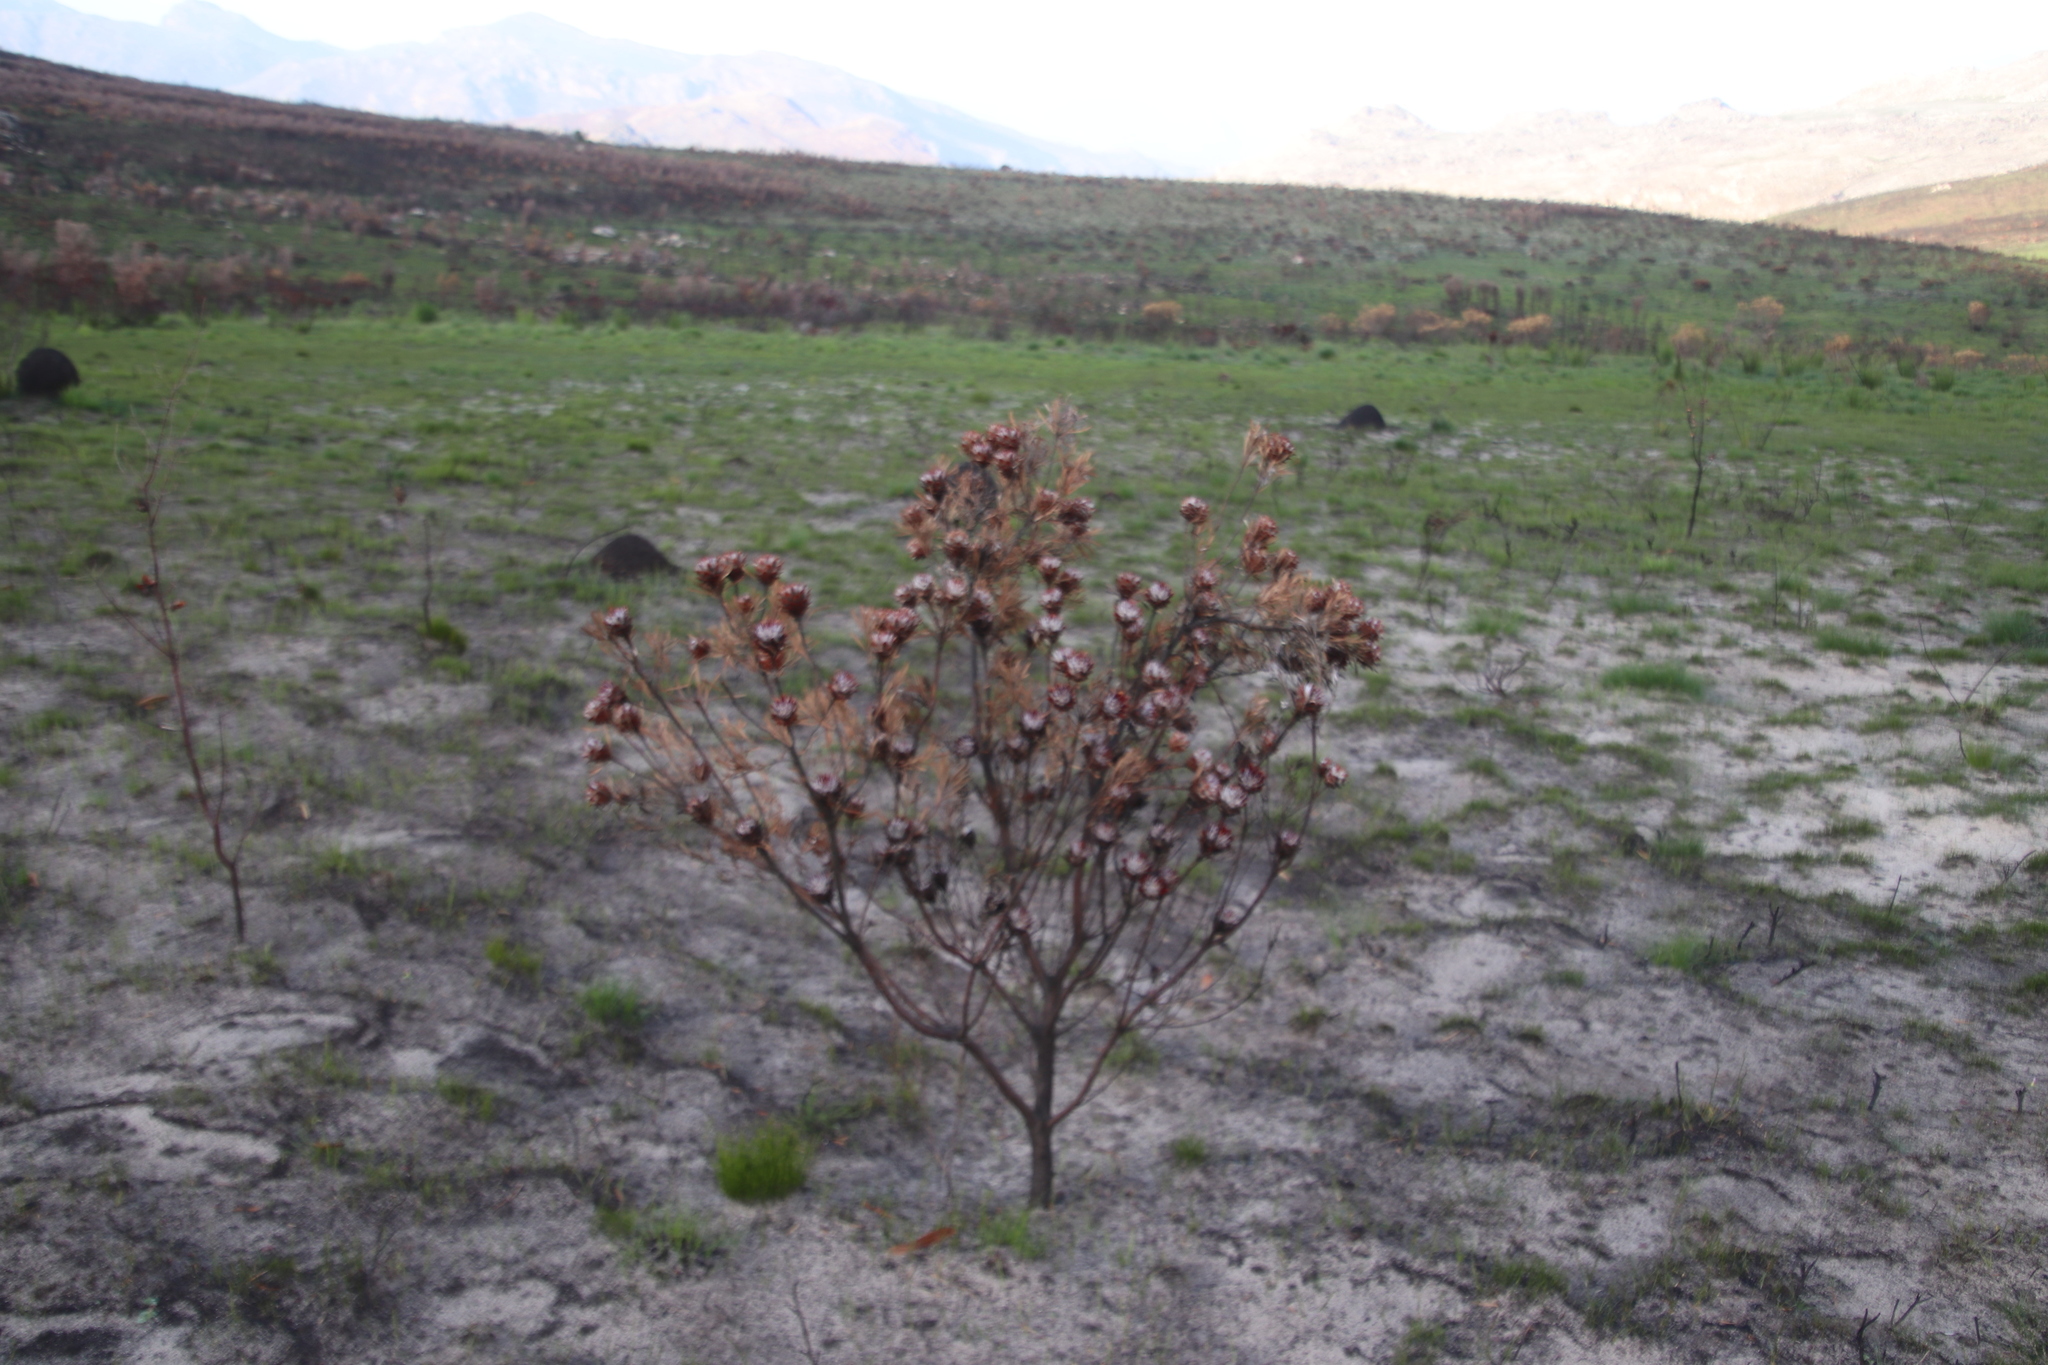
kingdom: Plantae
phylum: Tracheophyta
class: Magnoliopsida
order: Proteales
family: Proteaceae
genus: Leucadendron
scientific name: Leucadendron rubrum
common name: Spinning top
